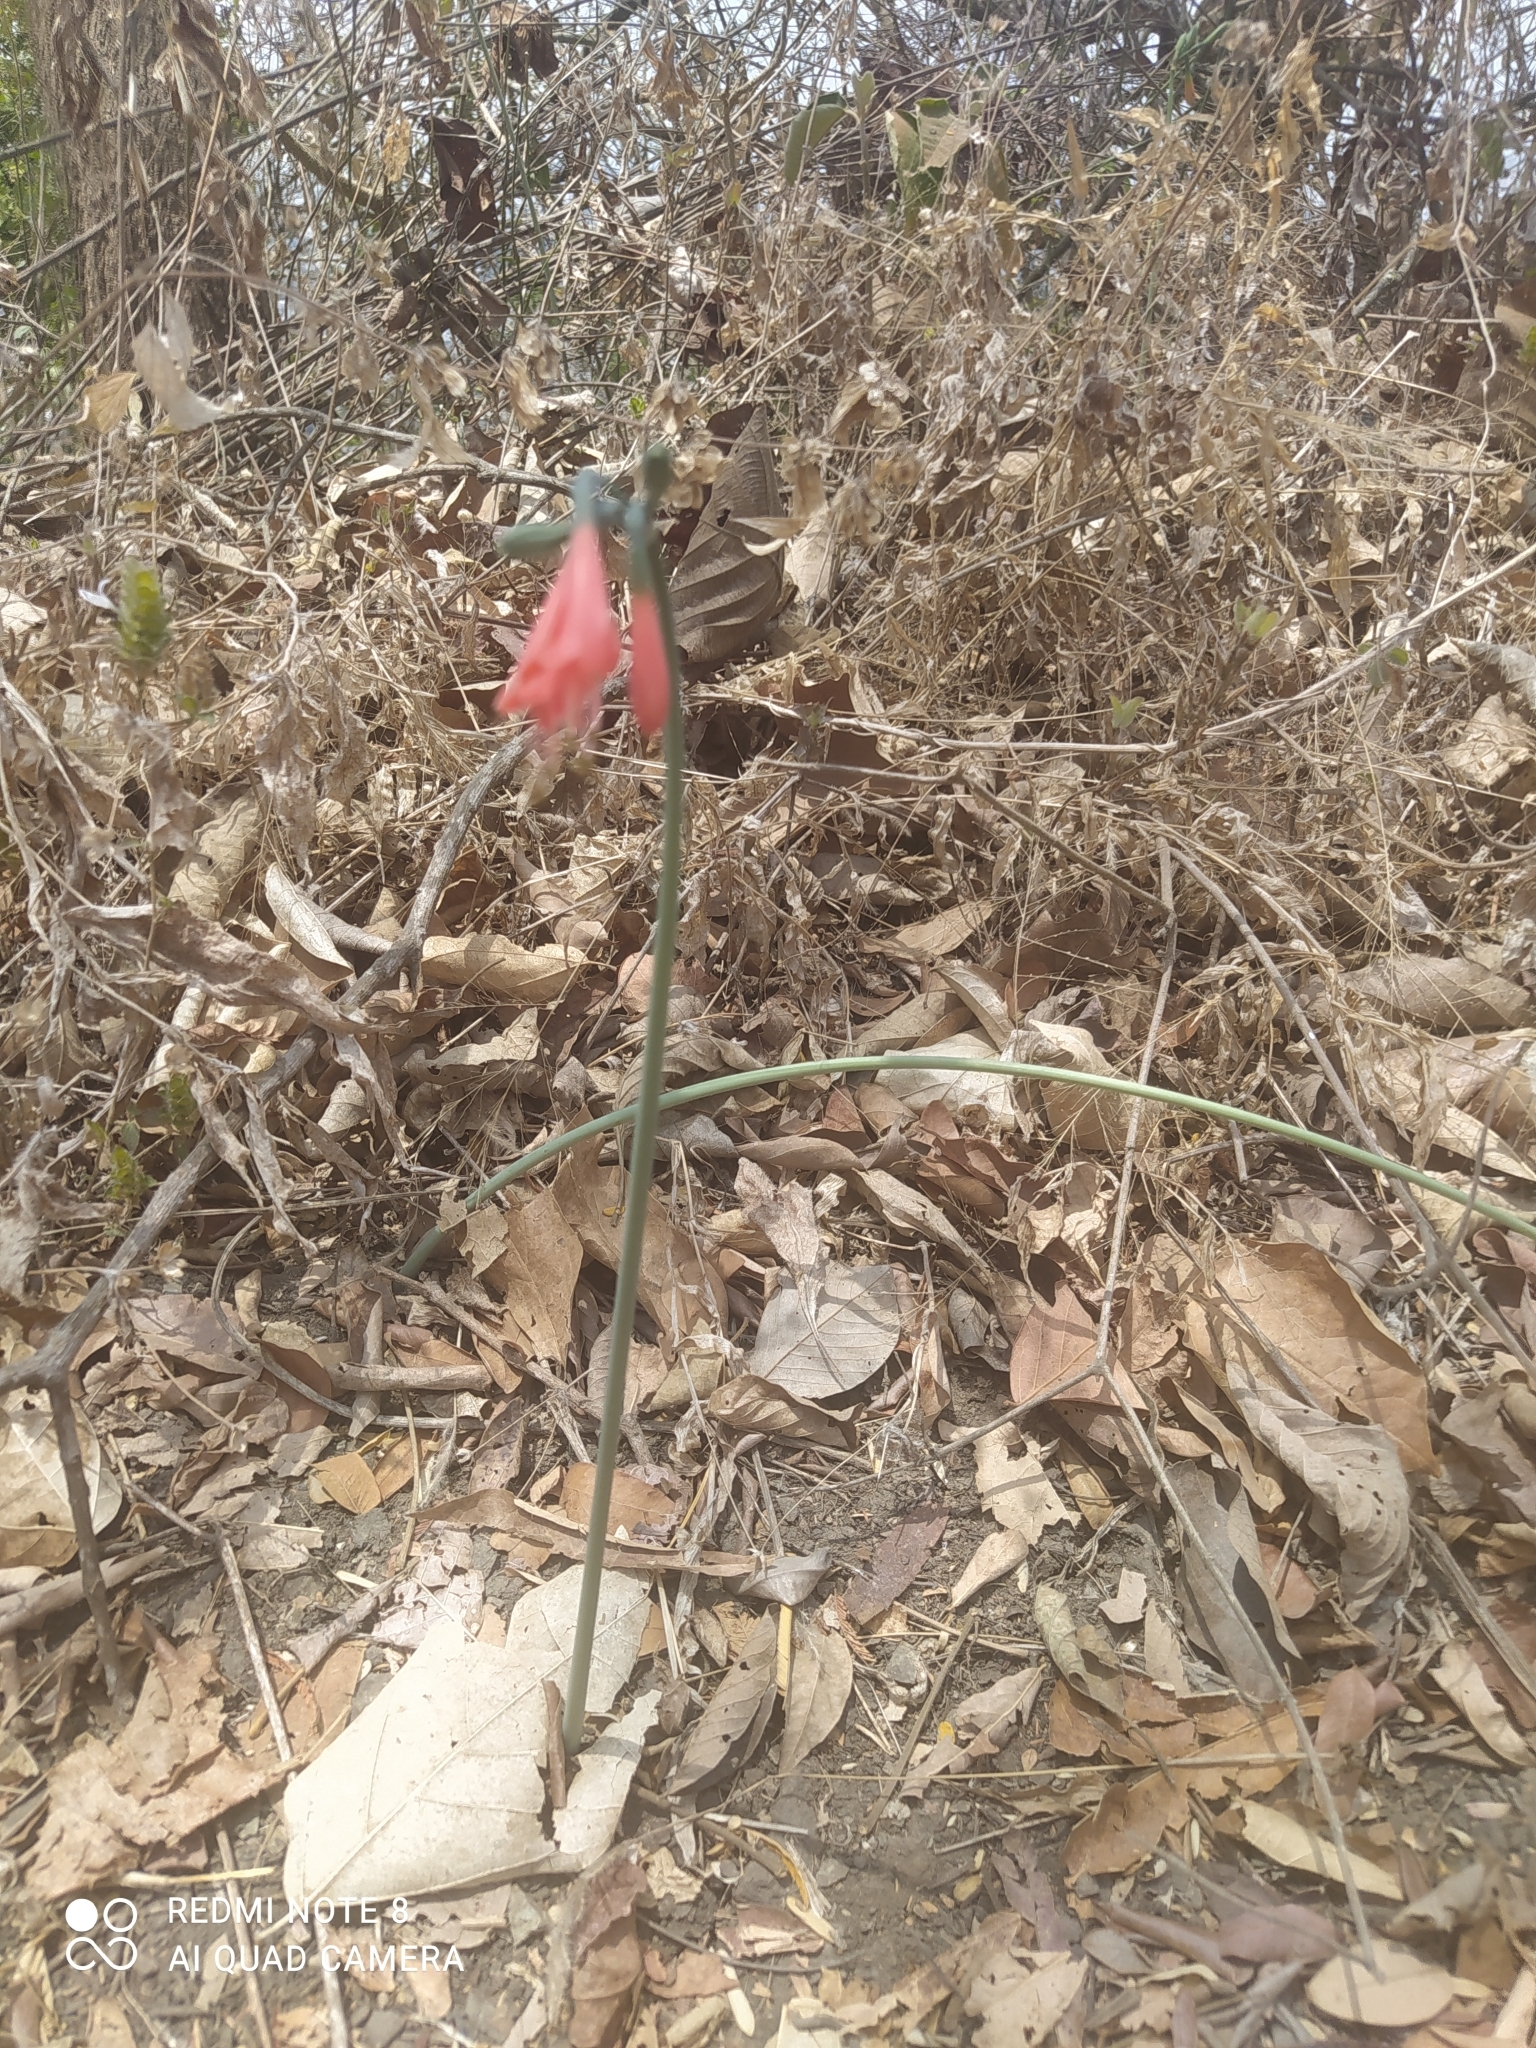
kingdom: Plantae
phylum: Tracheophyta
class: Liliopsida
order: Asparagales
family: Amaryllidaceae
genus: Eucrosia
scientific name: Eucrosia stricklandii
